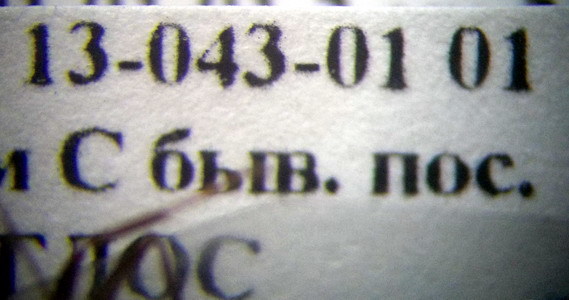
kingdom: Animalia
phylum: Arthropoda
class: Insecta
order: Hymenoptera
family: Formicidae
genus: Formica
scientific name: Formica subpilosa
